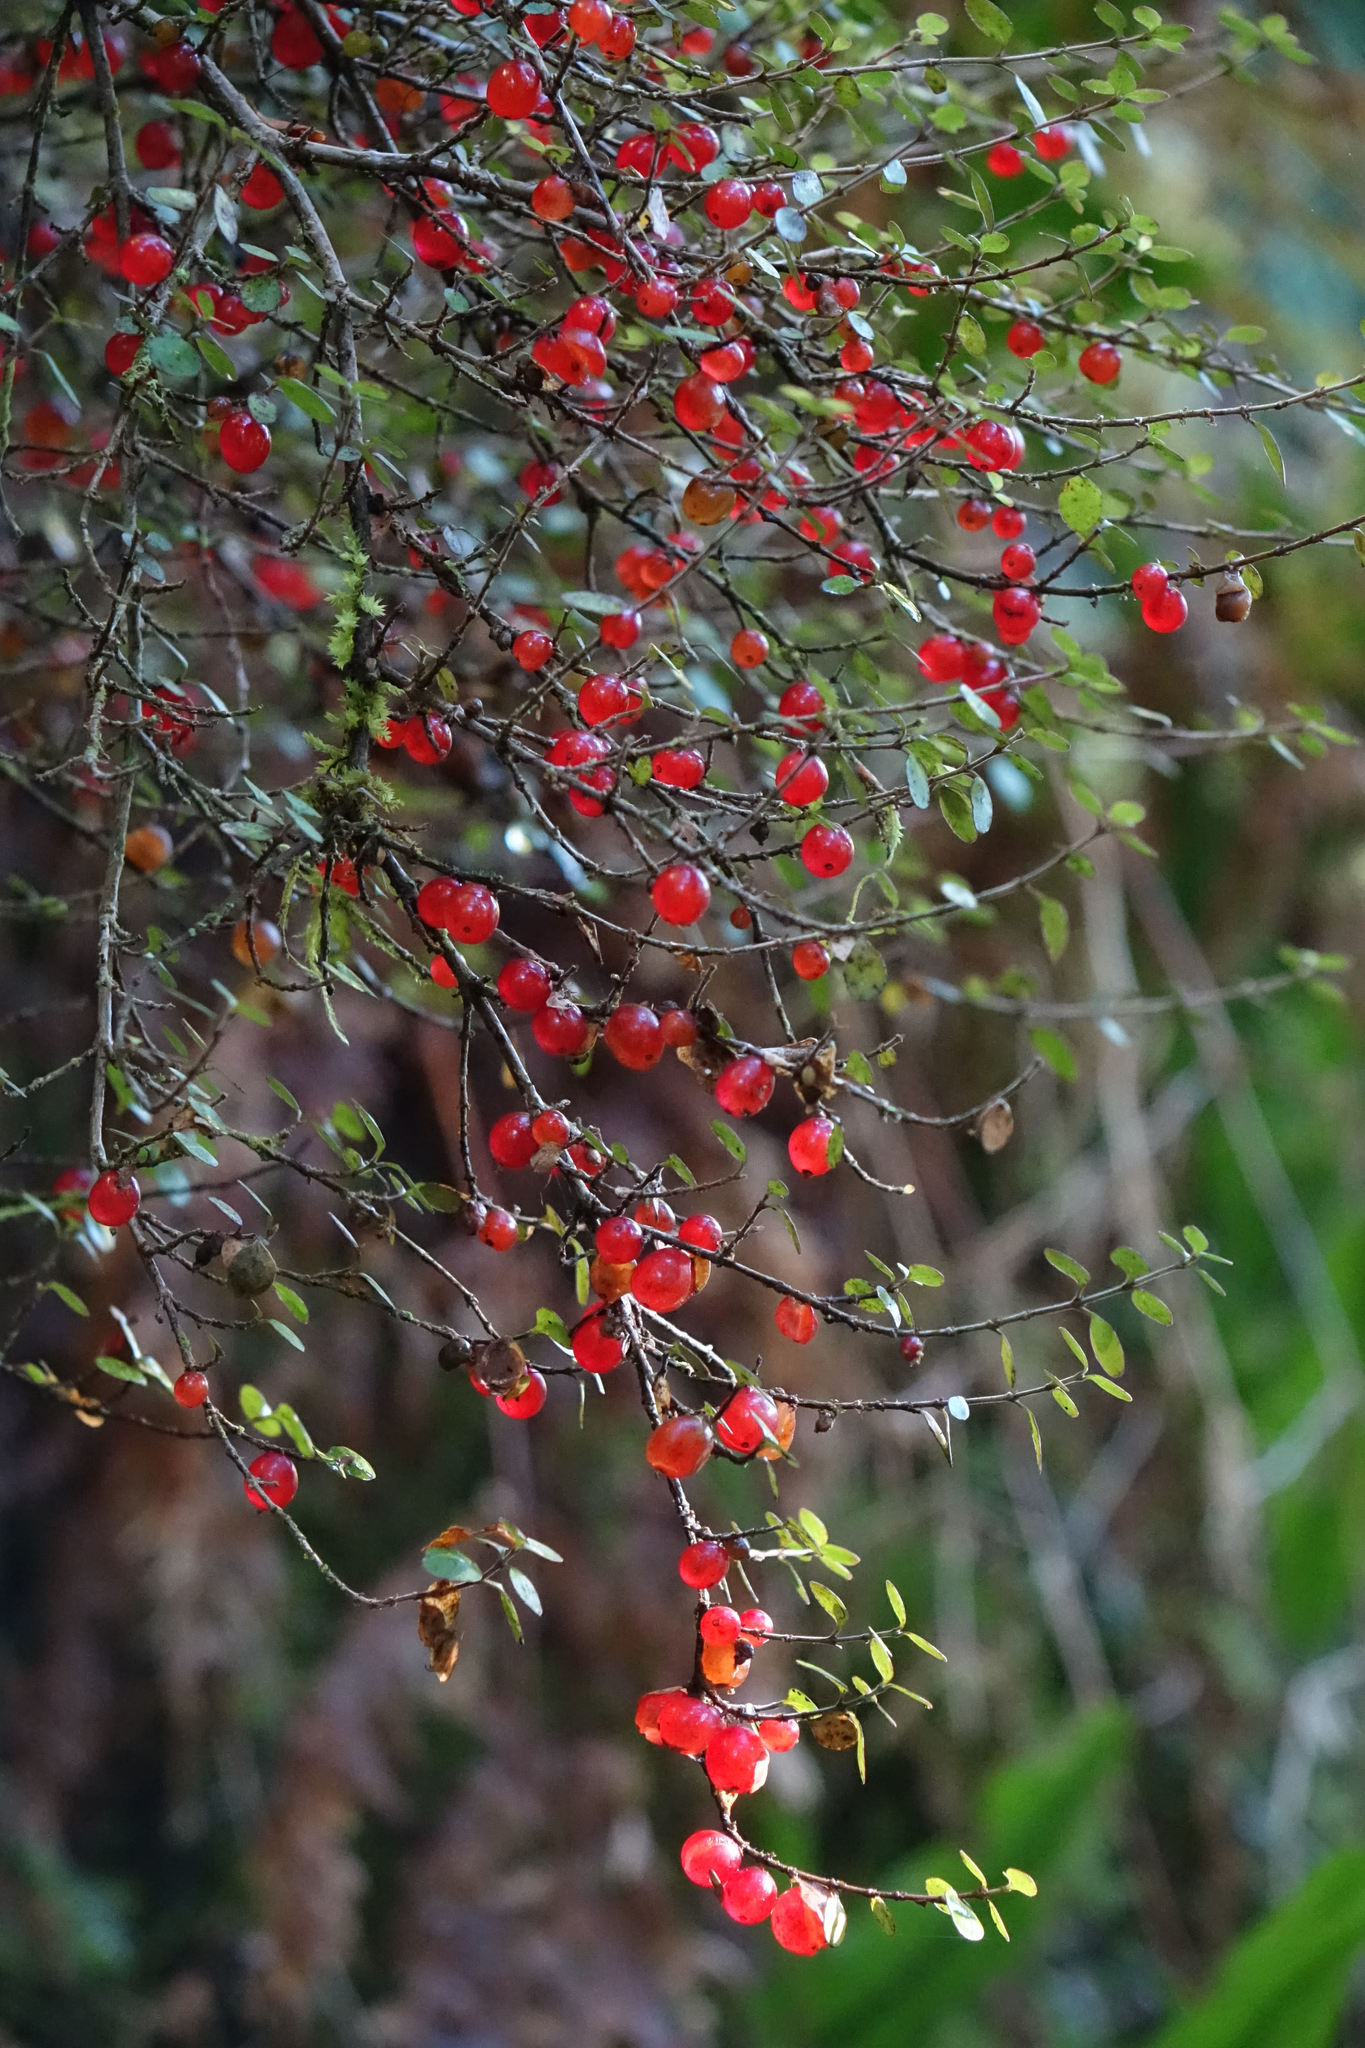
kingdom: Plantae
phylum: Tracheophyta
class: Magnoliopsida
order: Gentianales
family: Rubiaceae
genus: Coprosma
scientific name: Coprosma rhamnoides
